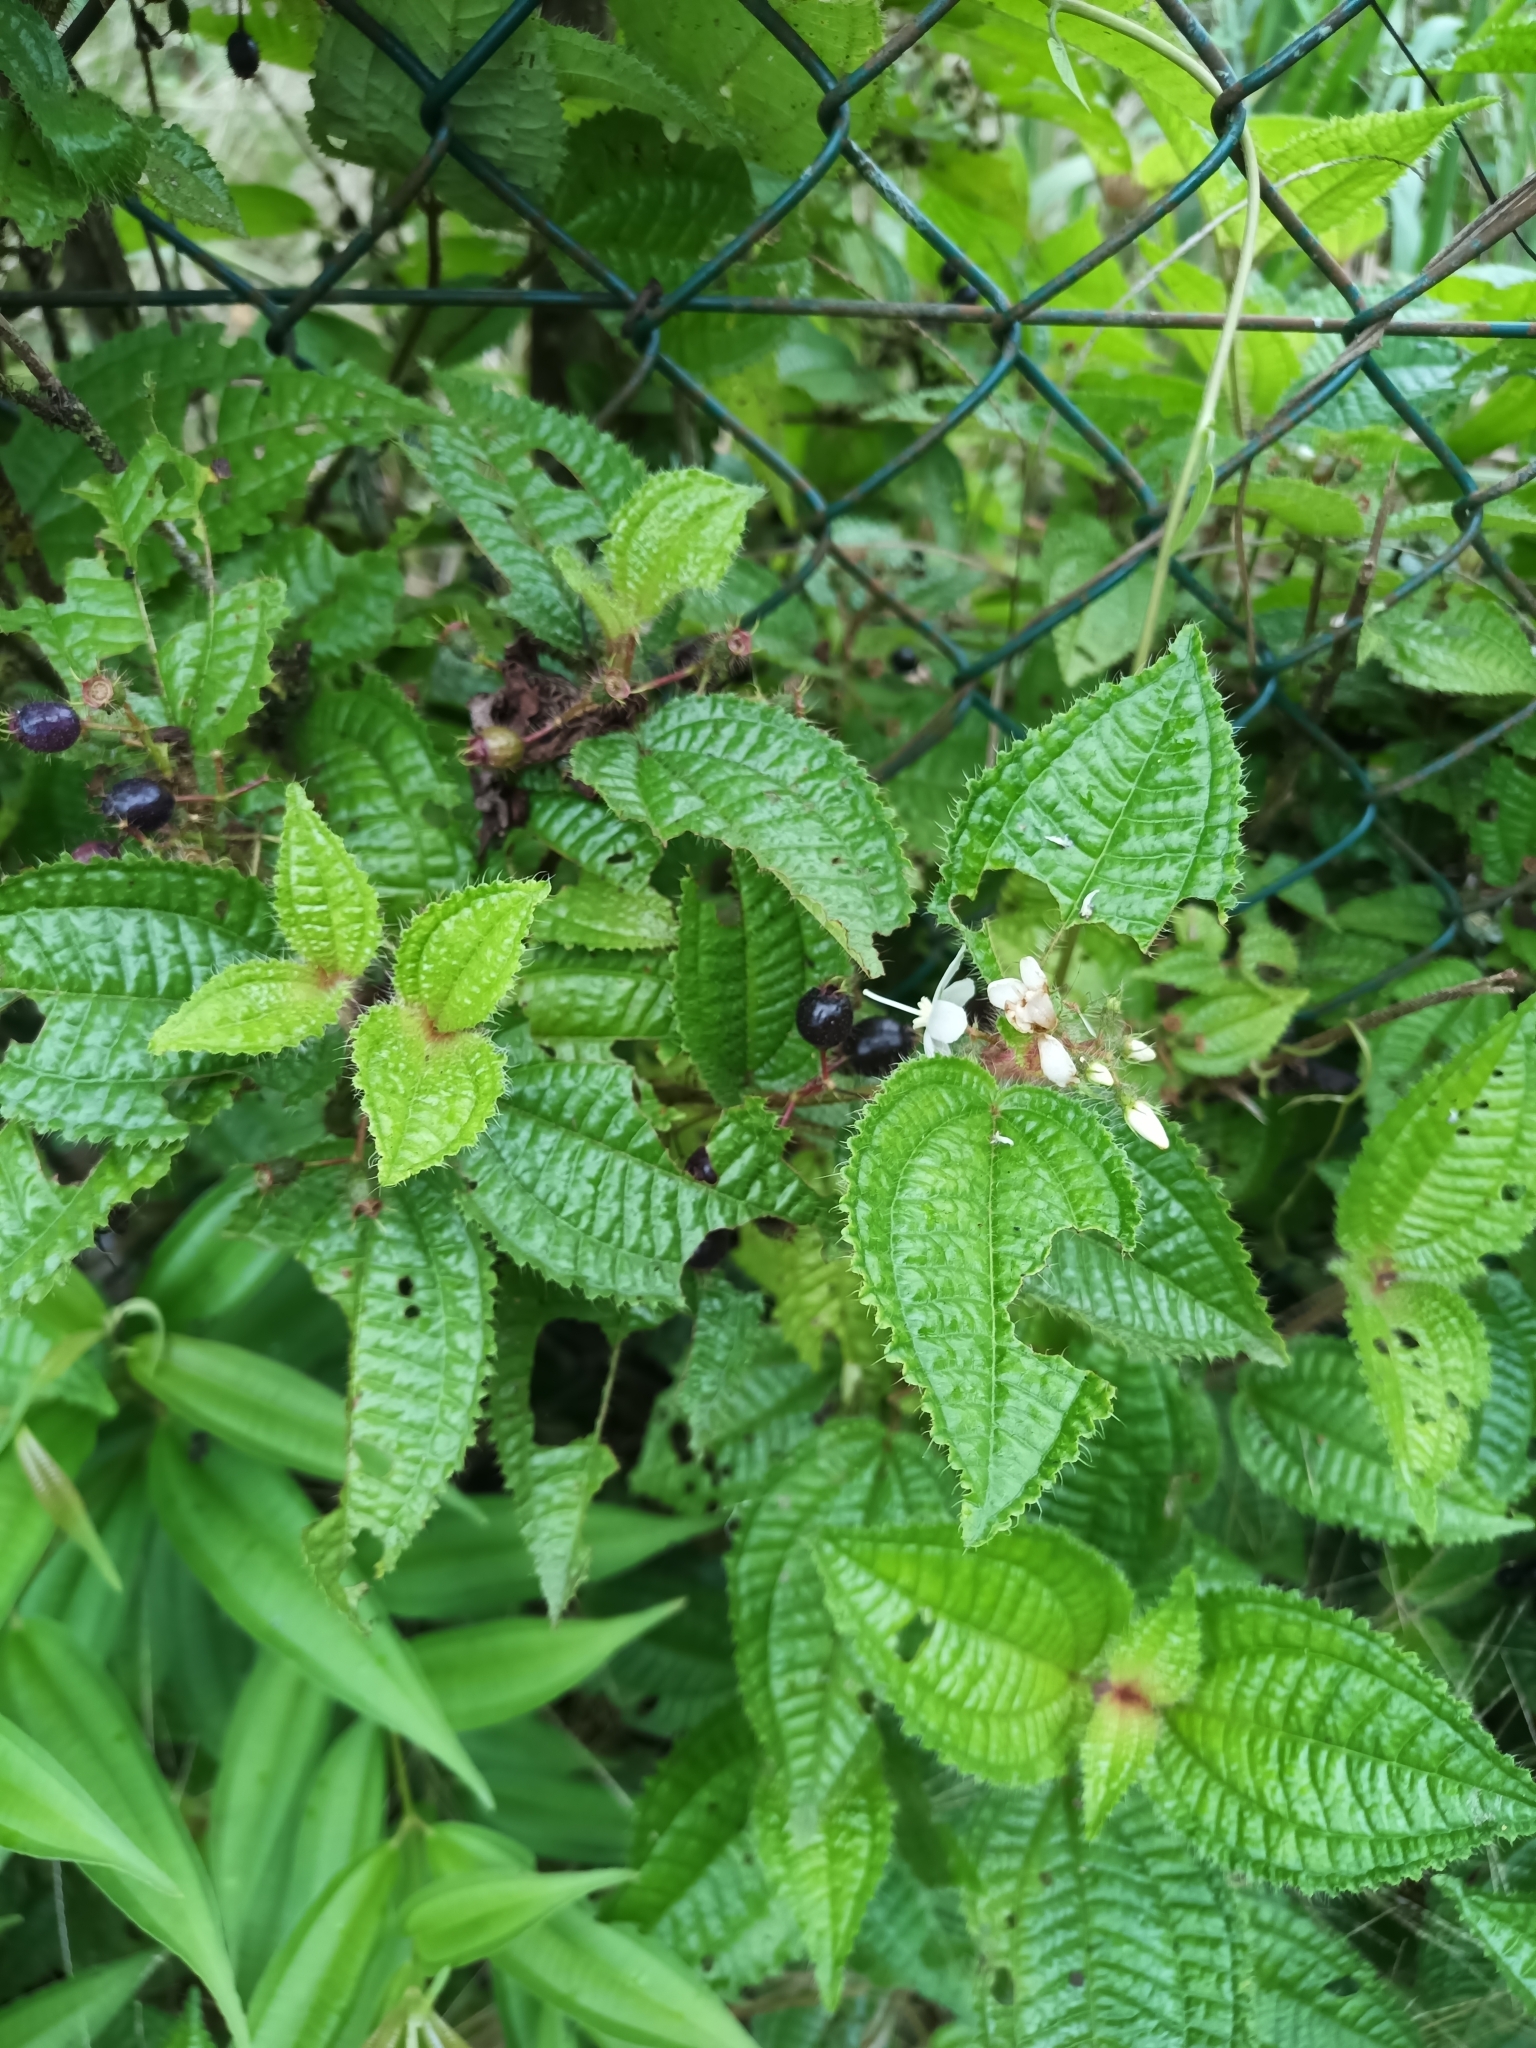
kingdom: Plantae
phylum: Tracheophyta
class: Magnoliopsida
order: Myrtales
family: Melastomataceae
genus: Miconia
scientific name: Miconia crenata
